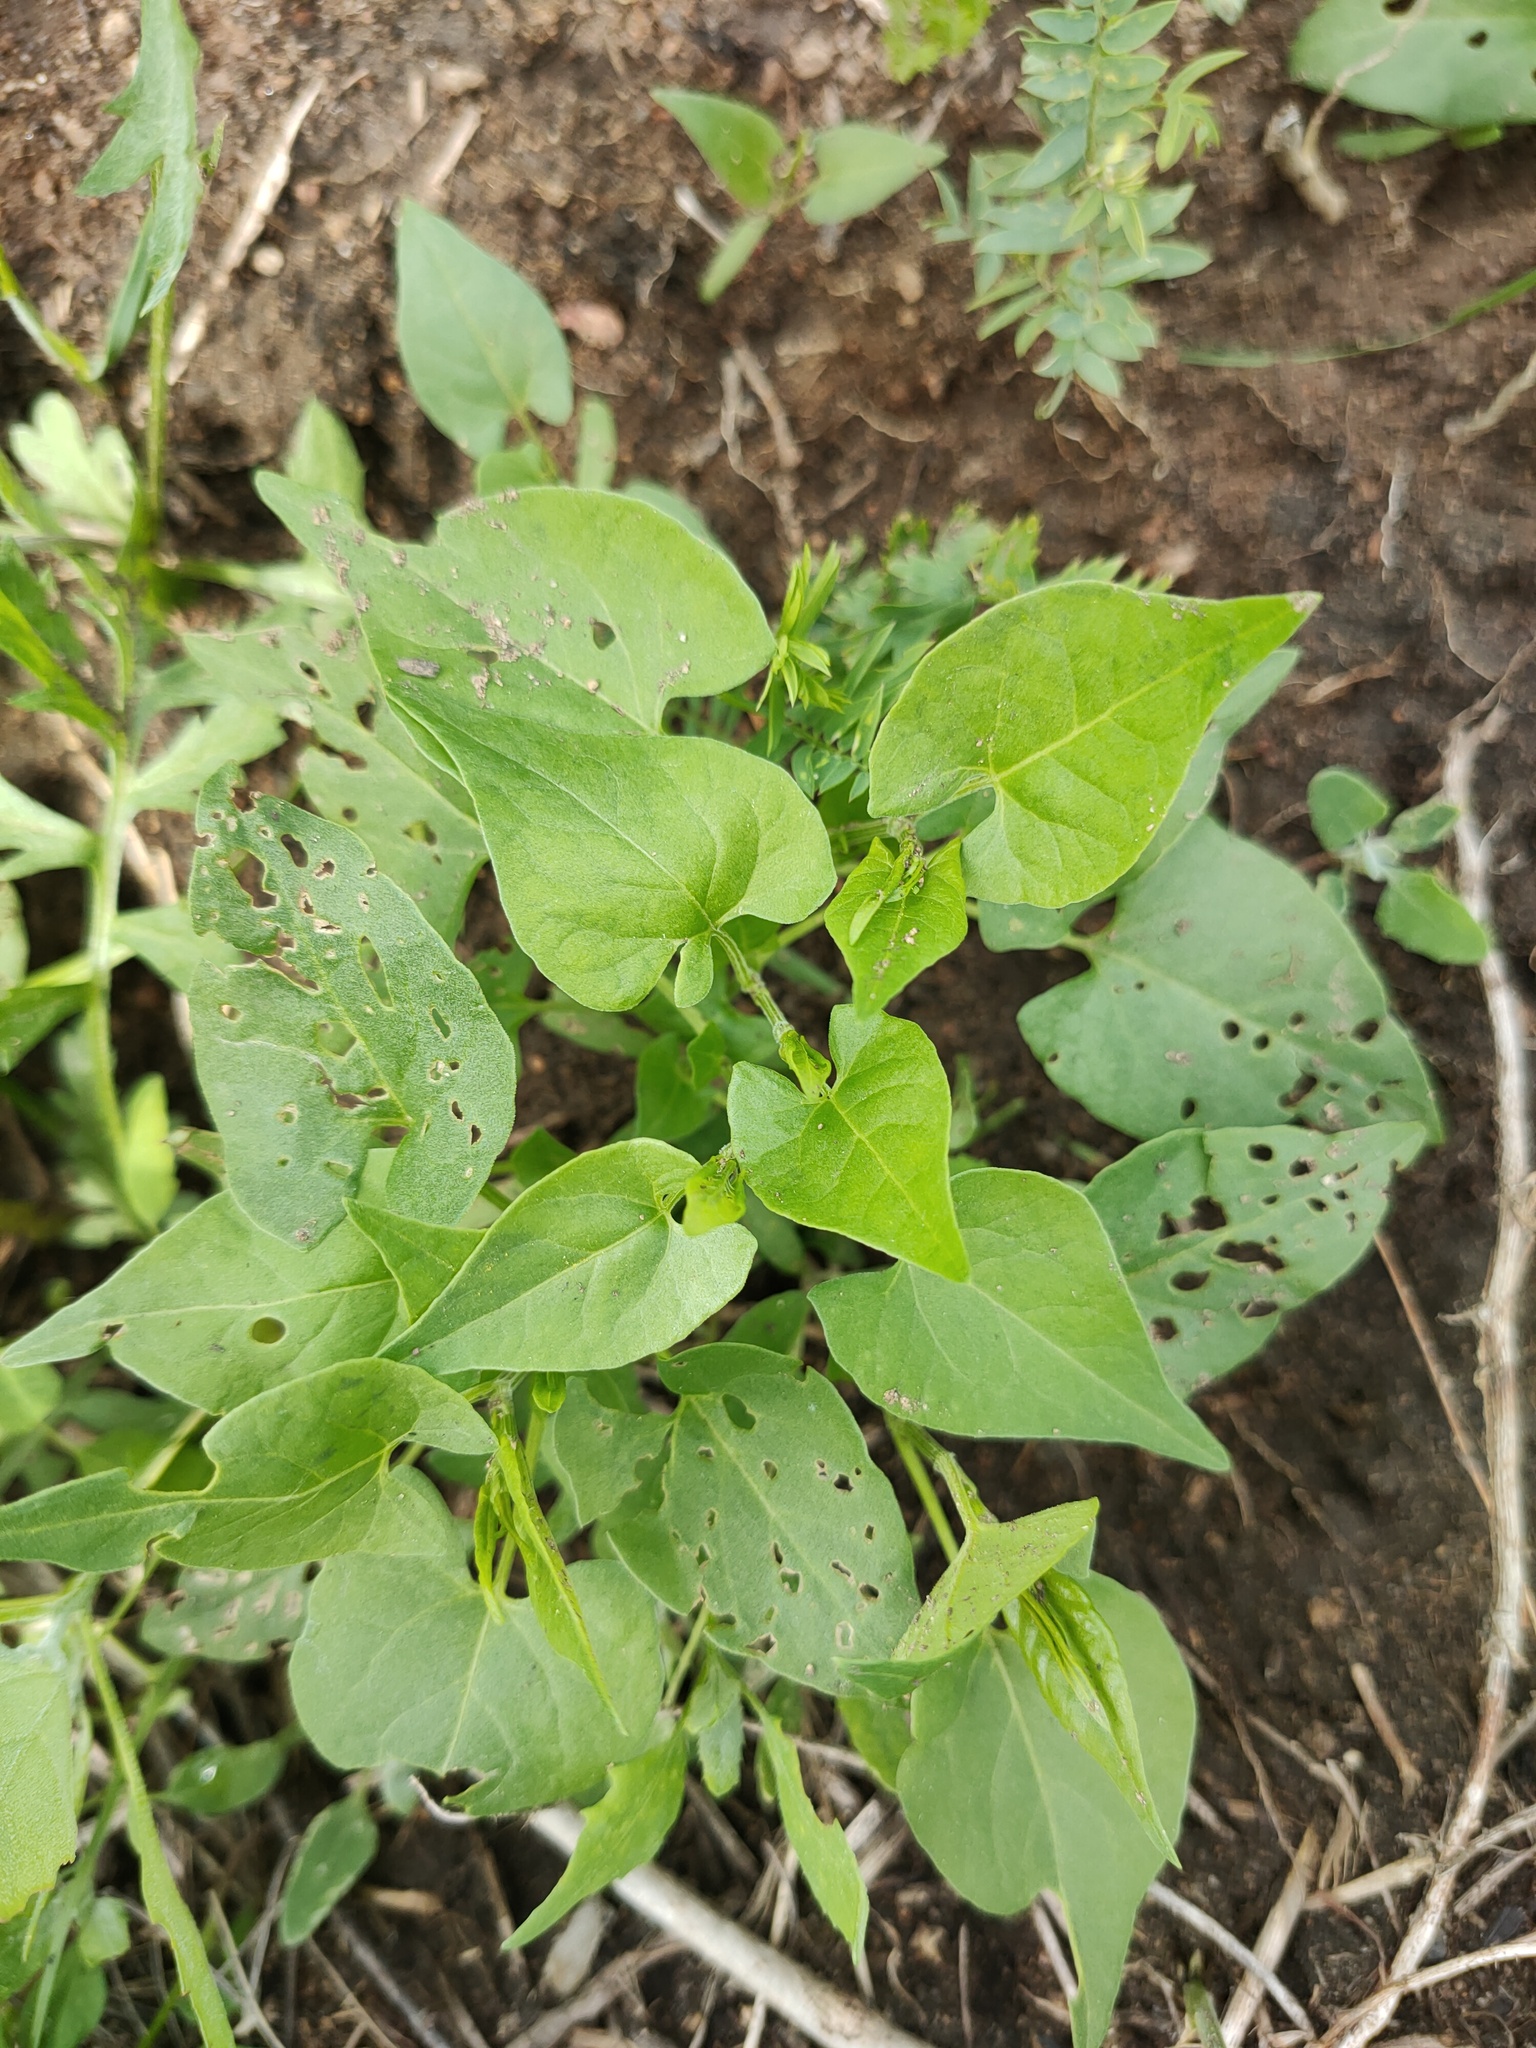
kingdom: Plantae
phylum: Tracheophyta
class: Magnoliopsida
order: Caryophyllales
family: Polygonaceae
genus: Fallopia
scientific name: Fallopia convolvulus
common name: Black bindweed
